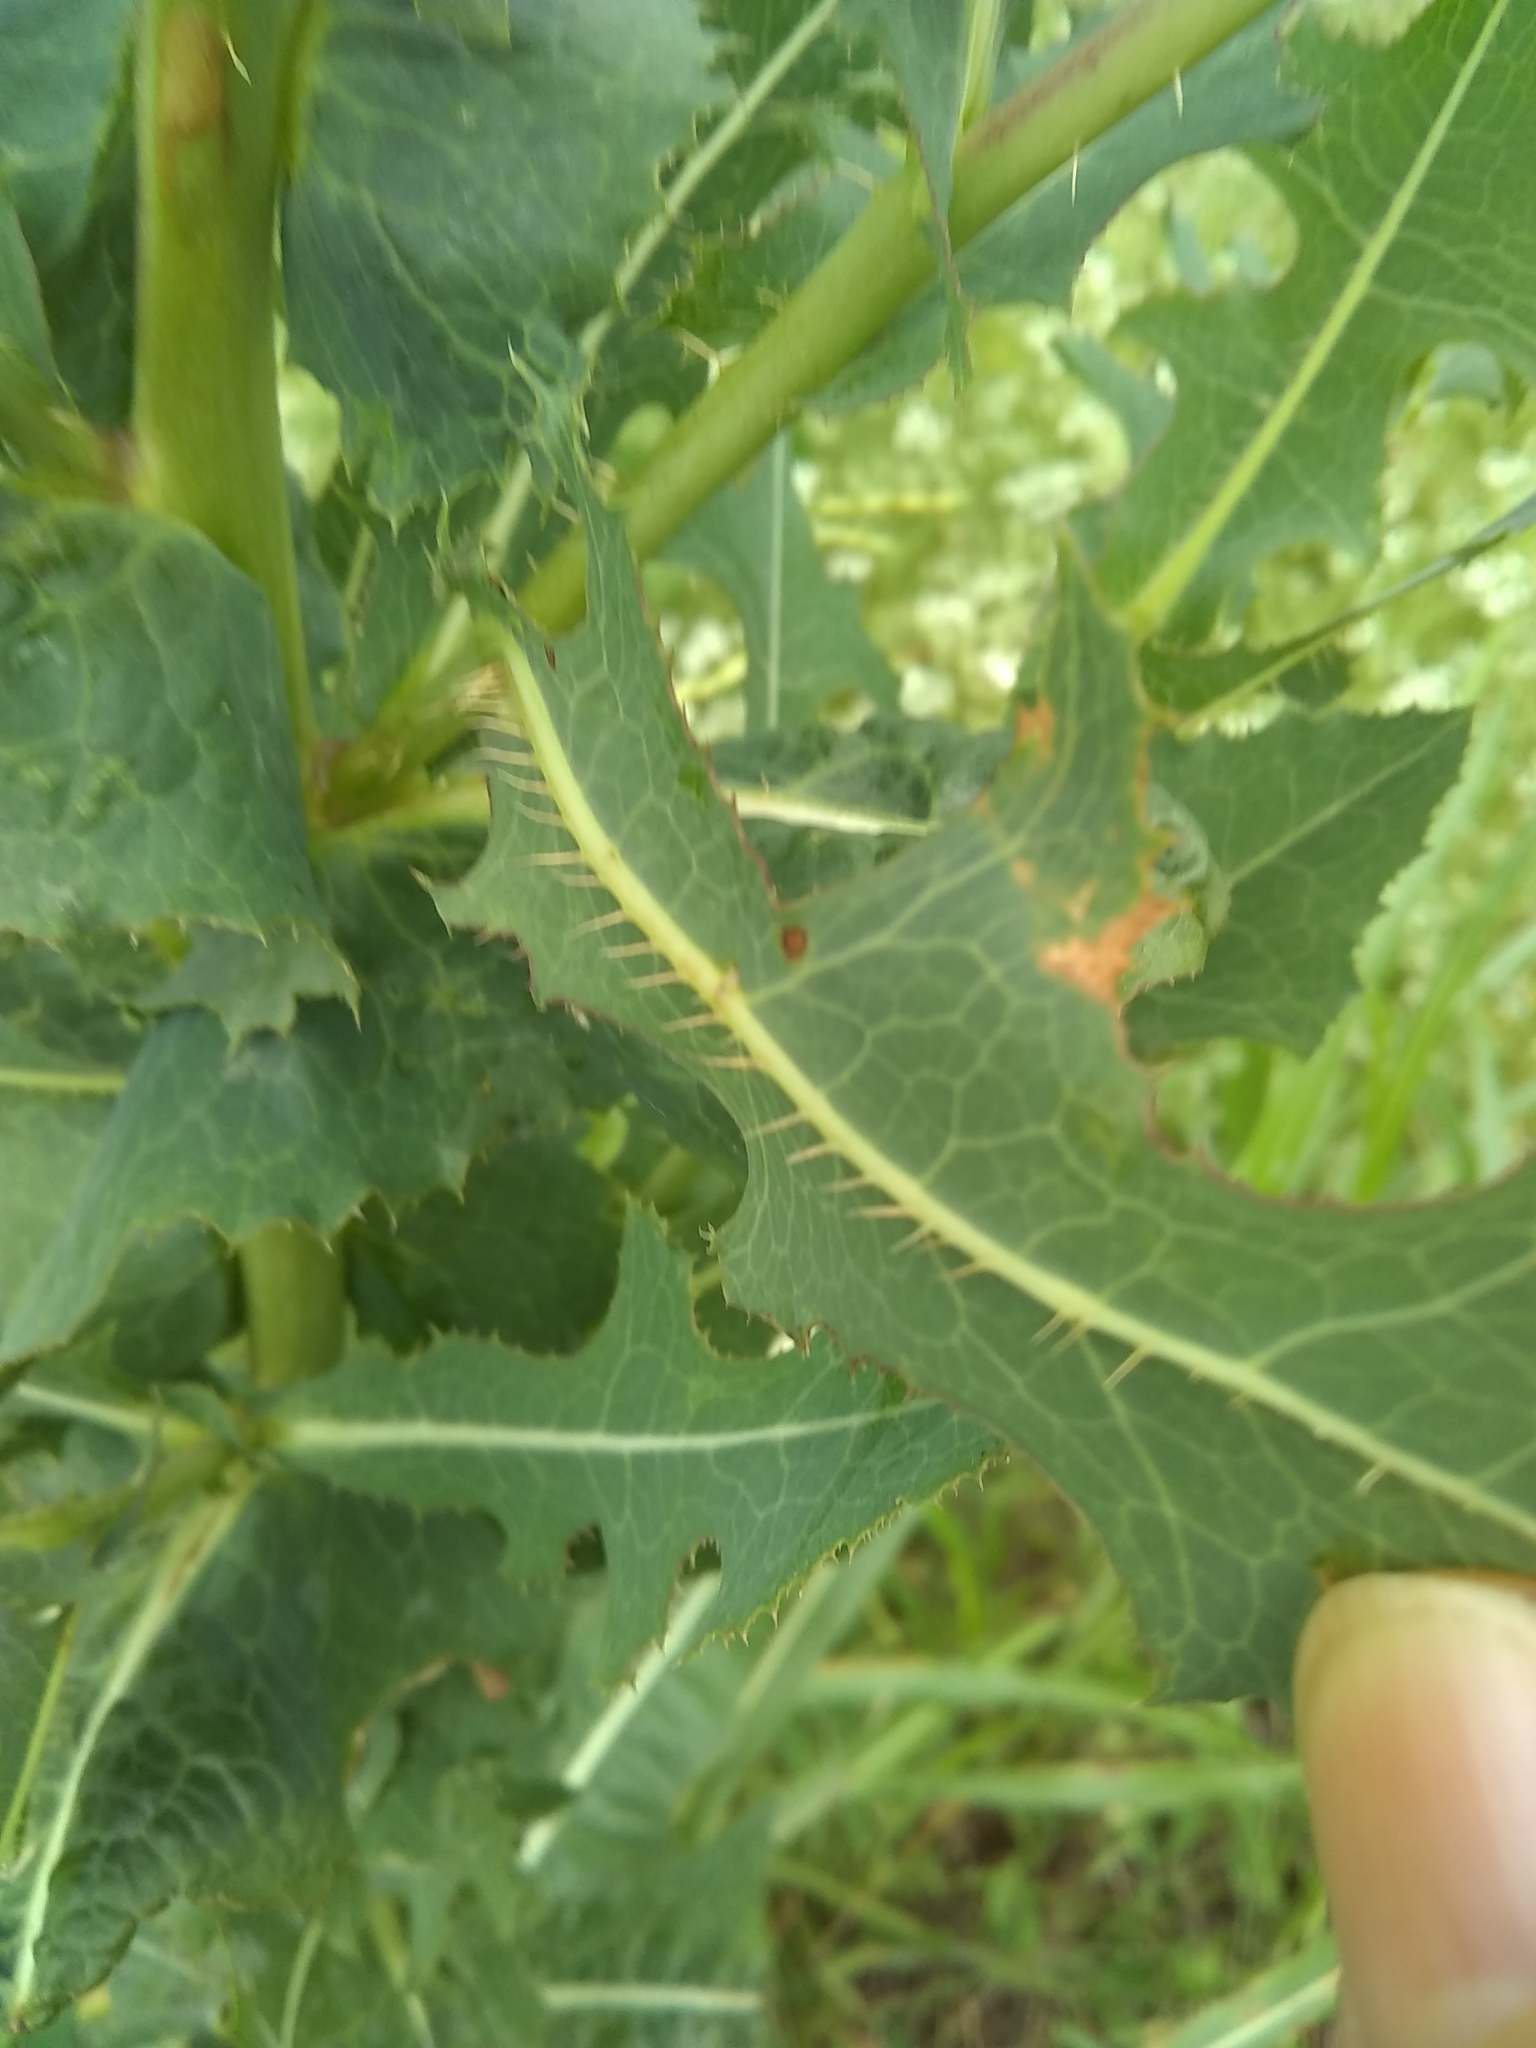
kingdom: Plantae
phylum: Tracheophyta
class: Magnoliopsida
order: Asterales
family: Asteraceae
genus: Lactuca
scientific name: Lactuca serriola
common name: Prickly lettuce
